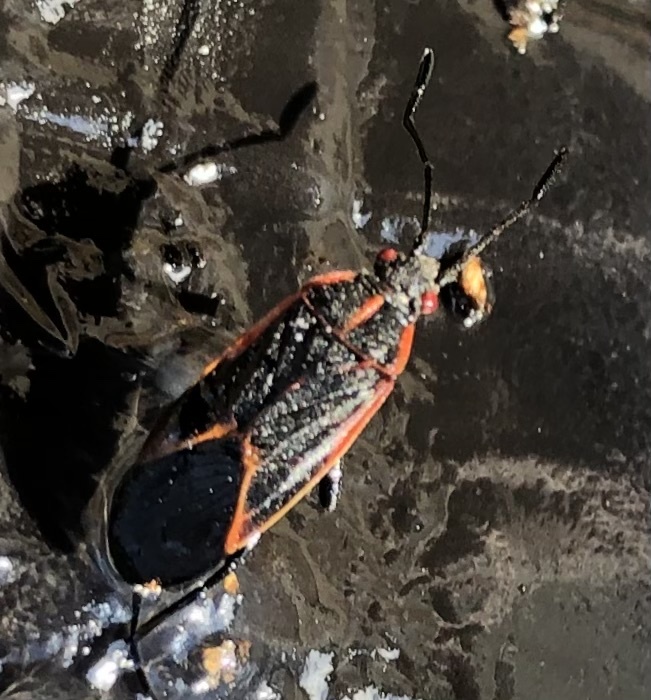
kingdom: Animalia
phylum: Arthropoda
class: Insecta
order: Hemiptera
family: Rhopalidae
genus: Boisea
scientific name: Boisea trivittata
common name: Boxelder bug
